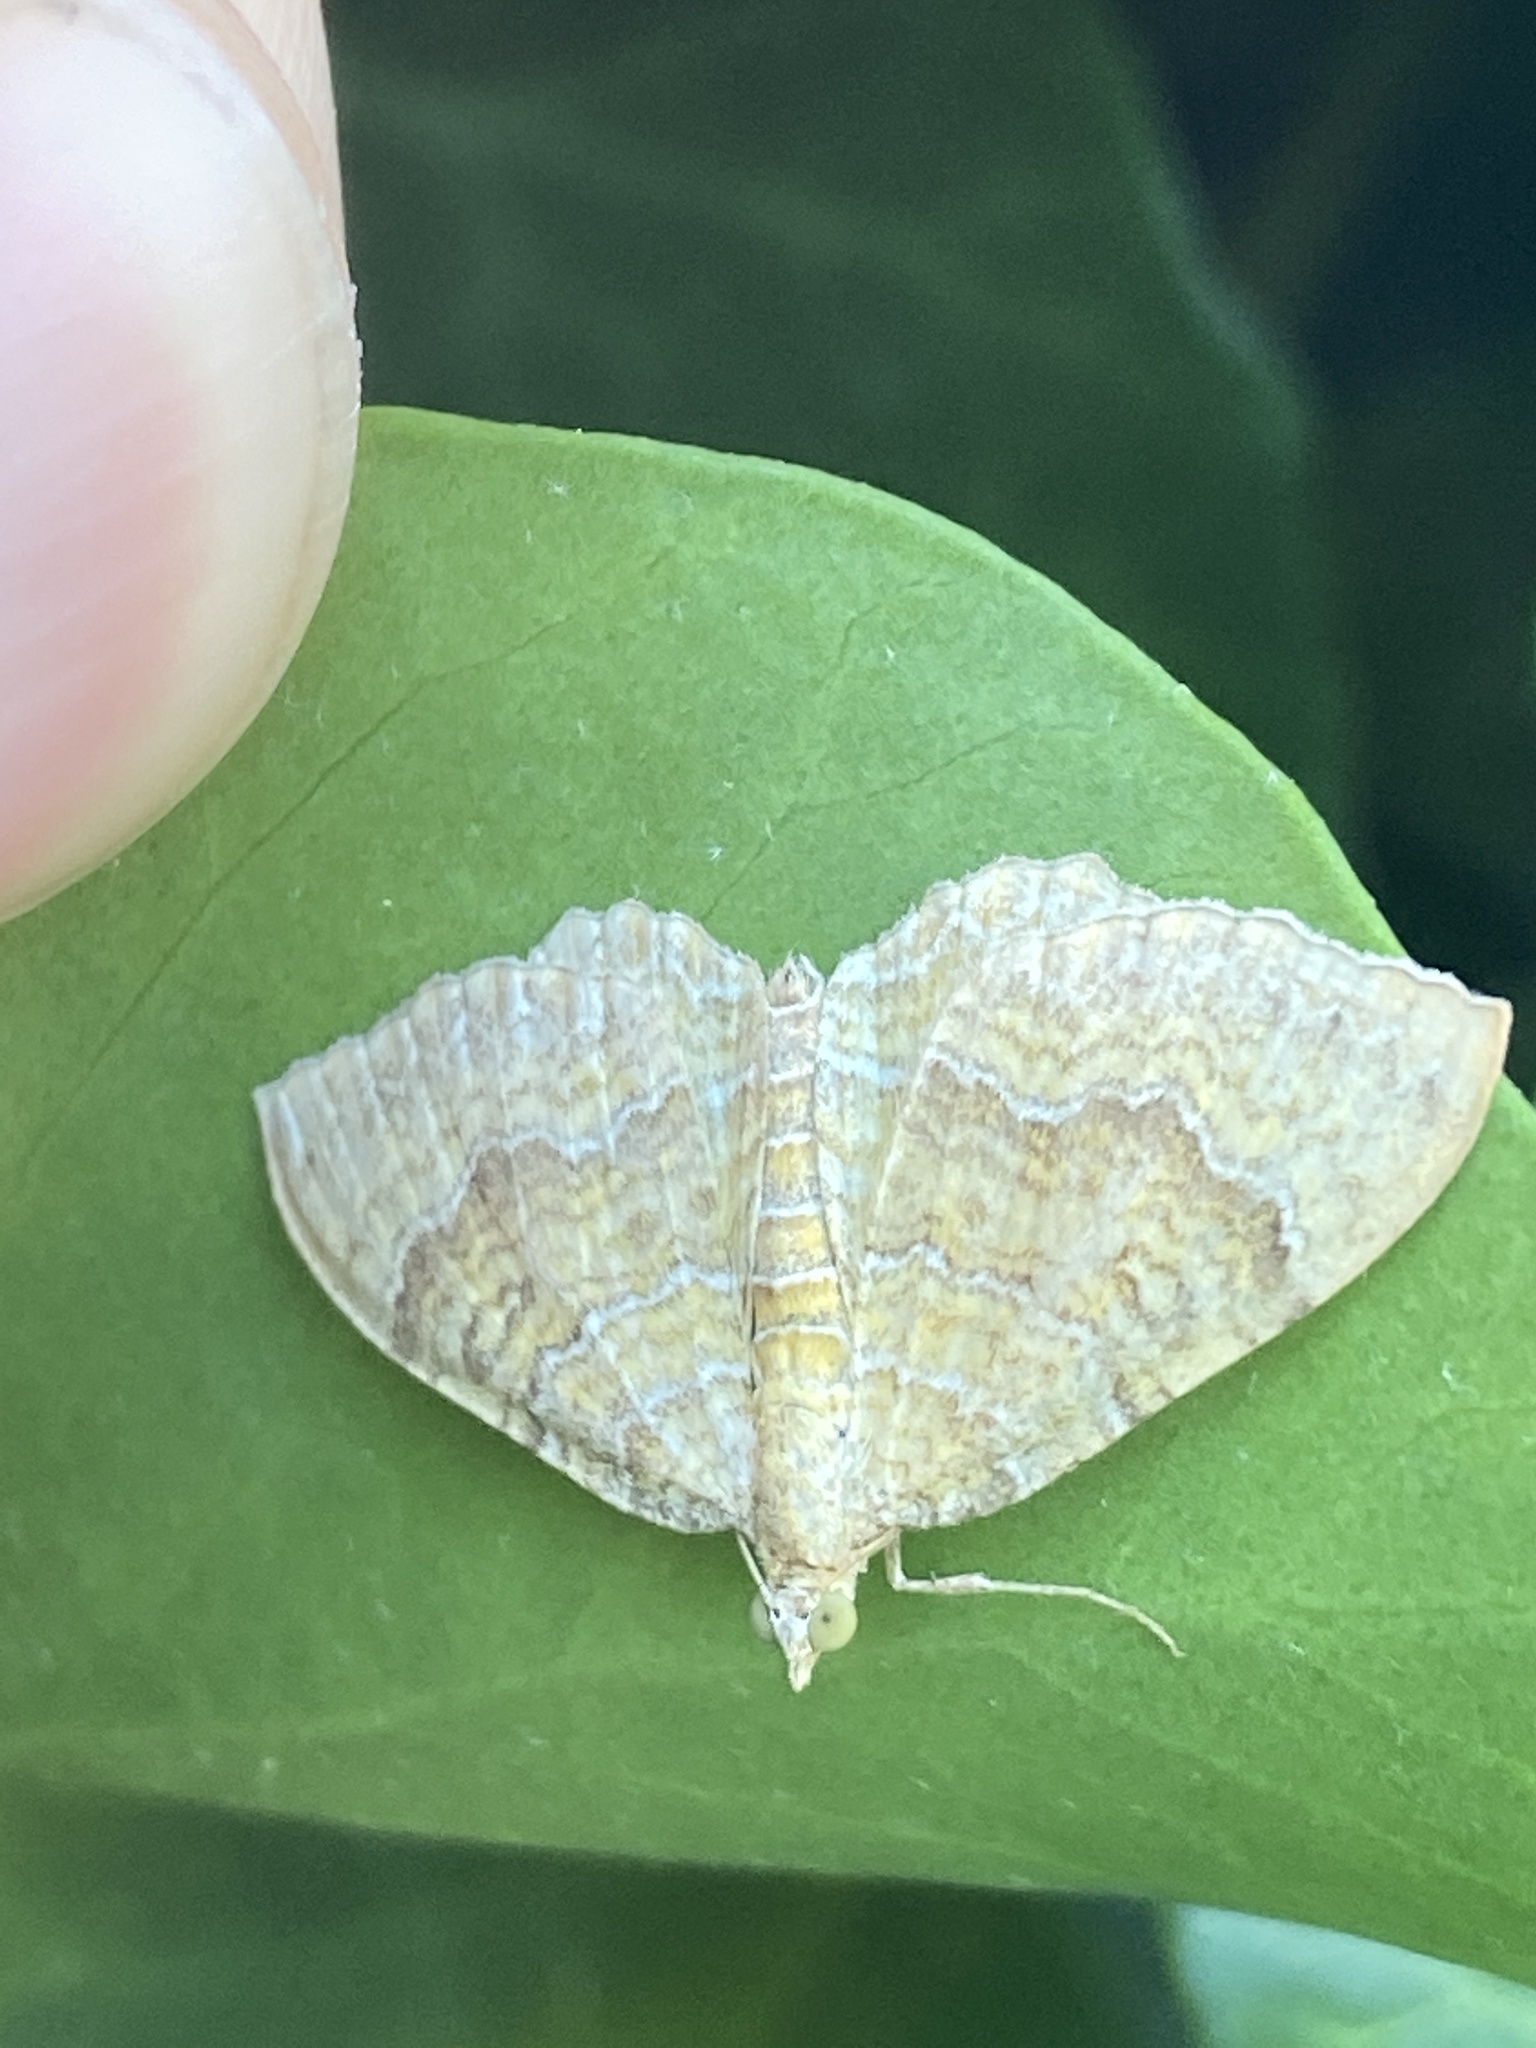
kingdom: Animalia
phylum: Arthropoda
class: Insecta
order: Lepidoptera
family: Geometridae
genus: Camptogramma
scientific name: Camptogramma bilineata
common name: Yellow shell
